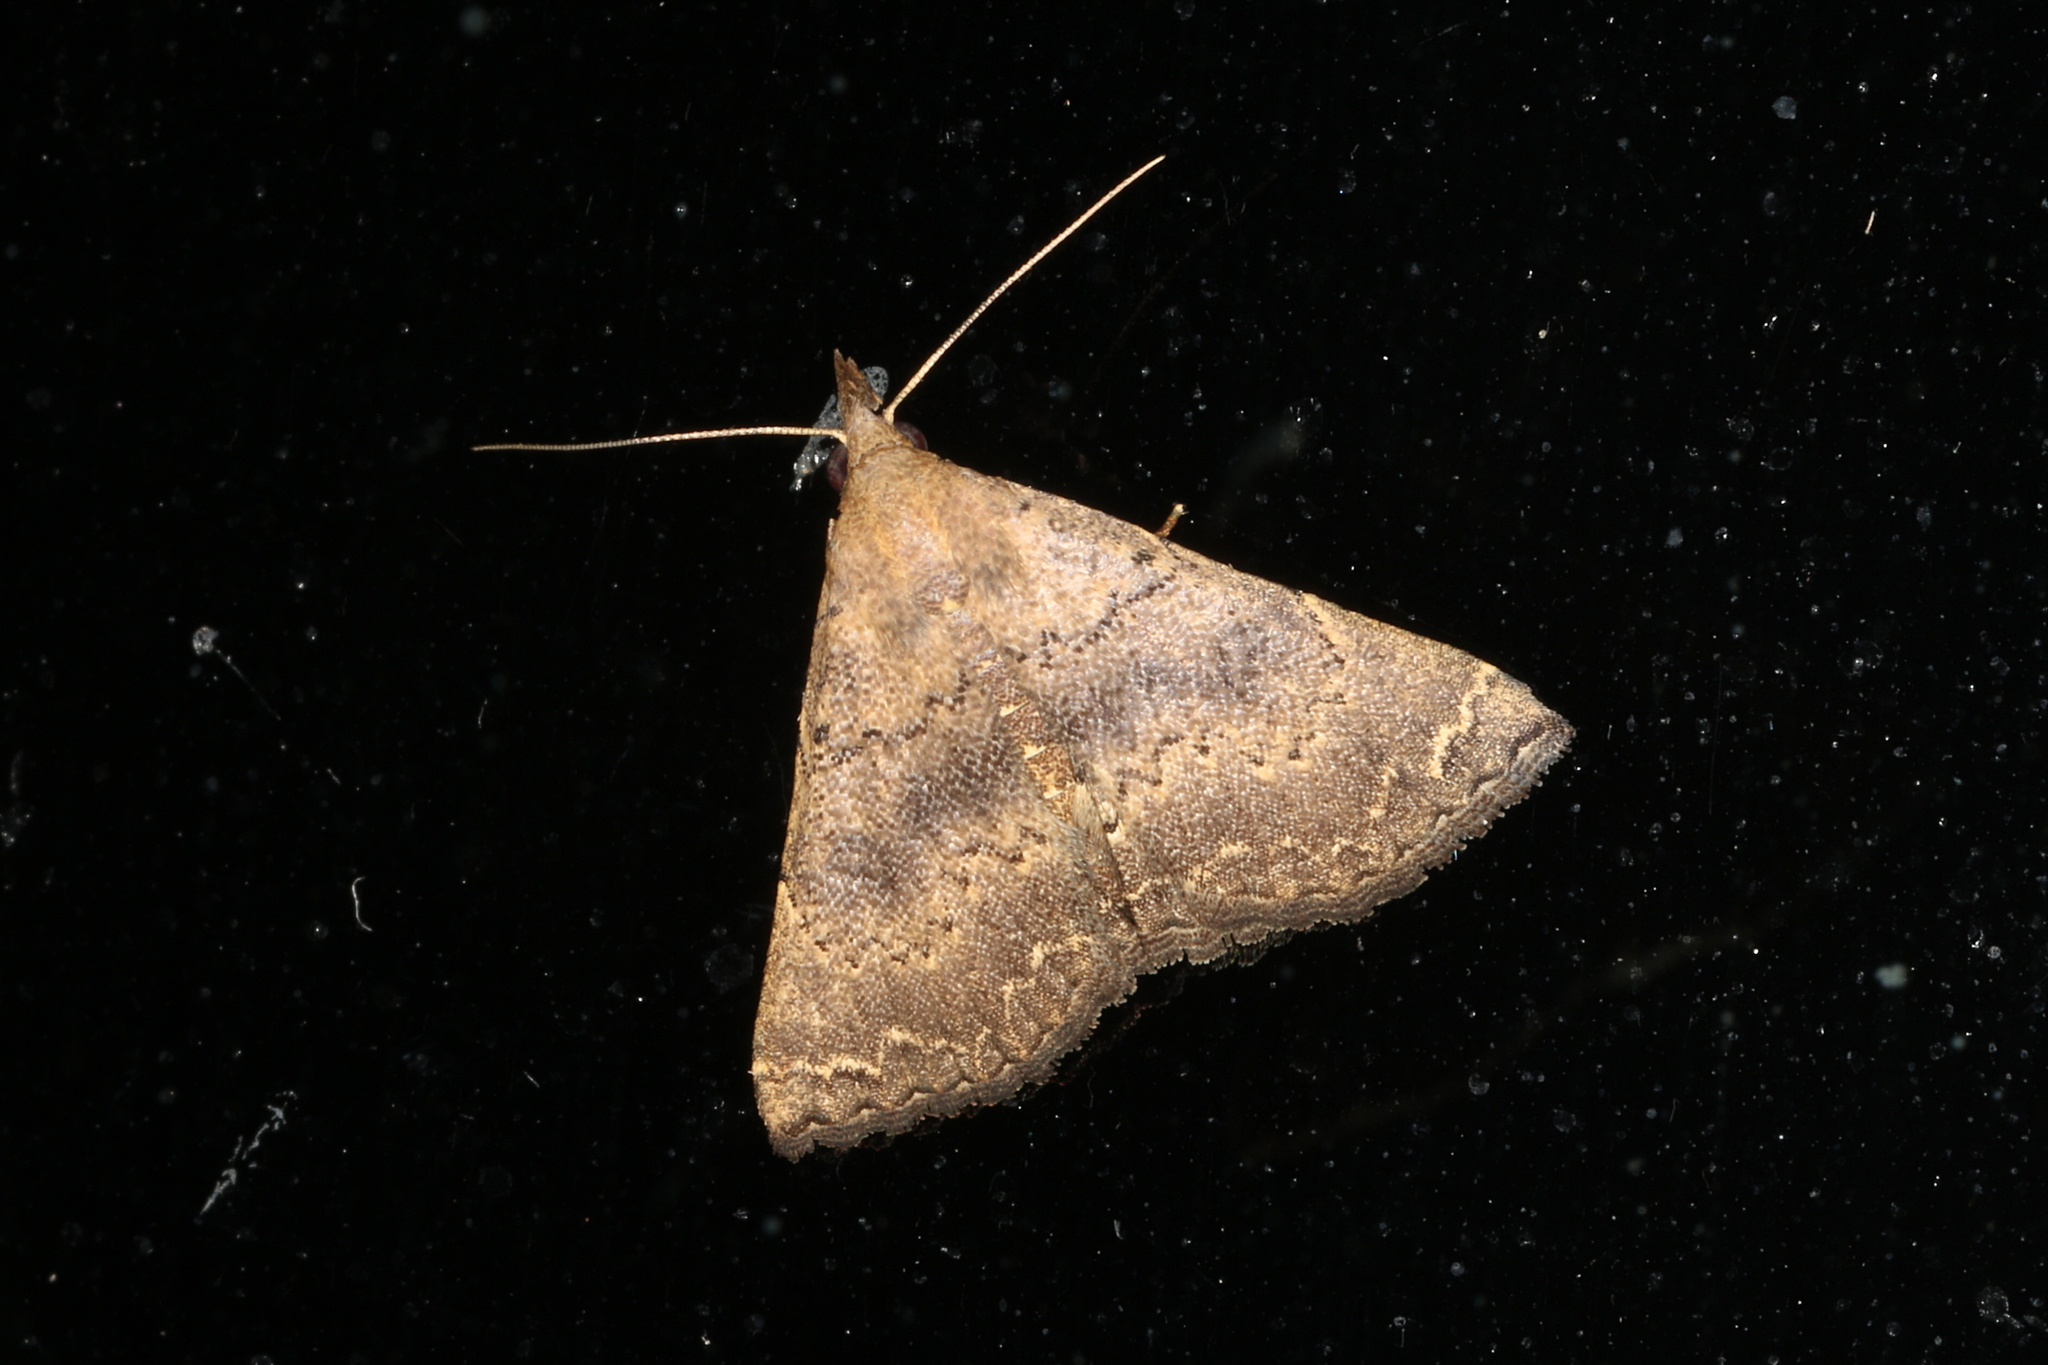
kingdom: Animalia
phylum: Arthropoda
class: Insecta
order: Lepidoptera
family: Erebidae
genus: Progonia
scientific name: Progonia oileusalis
